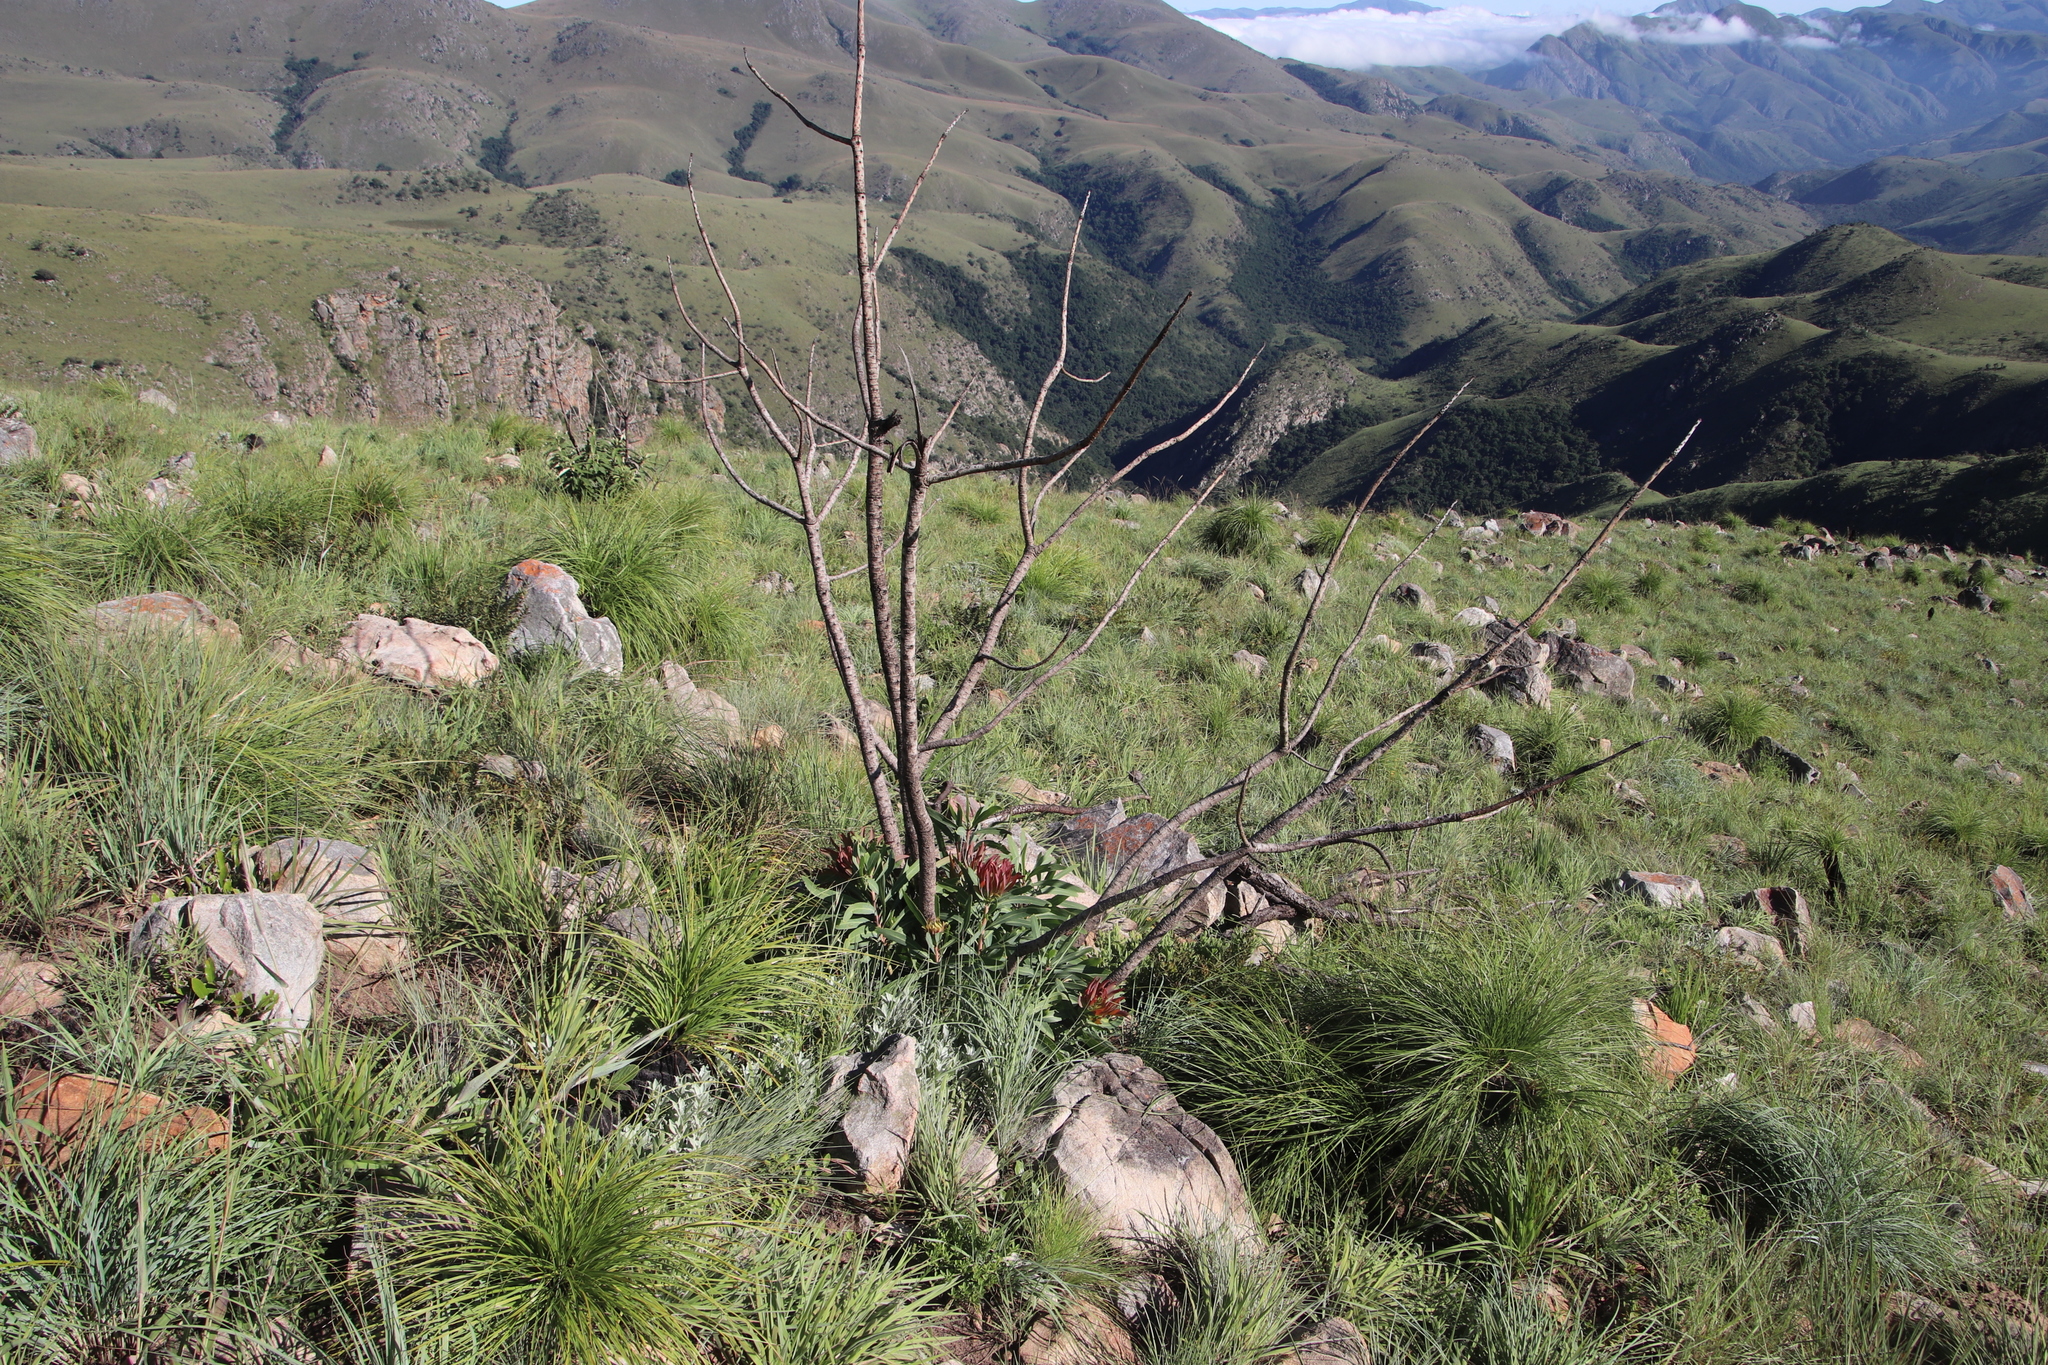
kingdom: Plantae
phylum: Tracheophyta
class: Magnoliopsida
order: Proteales
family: Proteaceae
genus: Protea
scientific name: Protea caffra
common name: Common sugarbush
